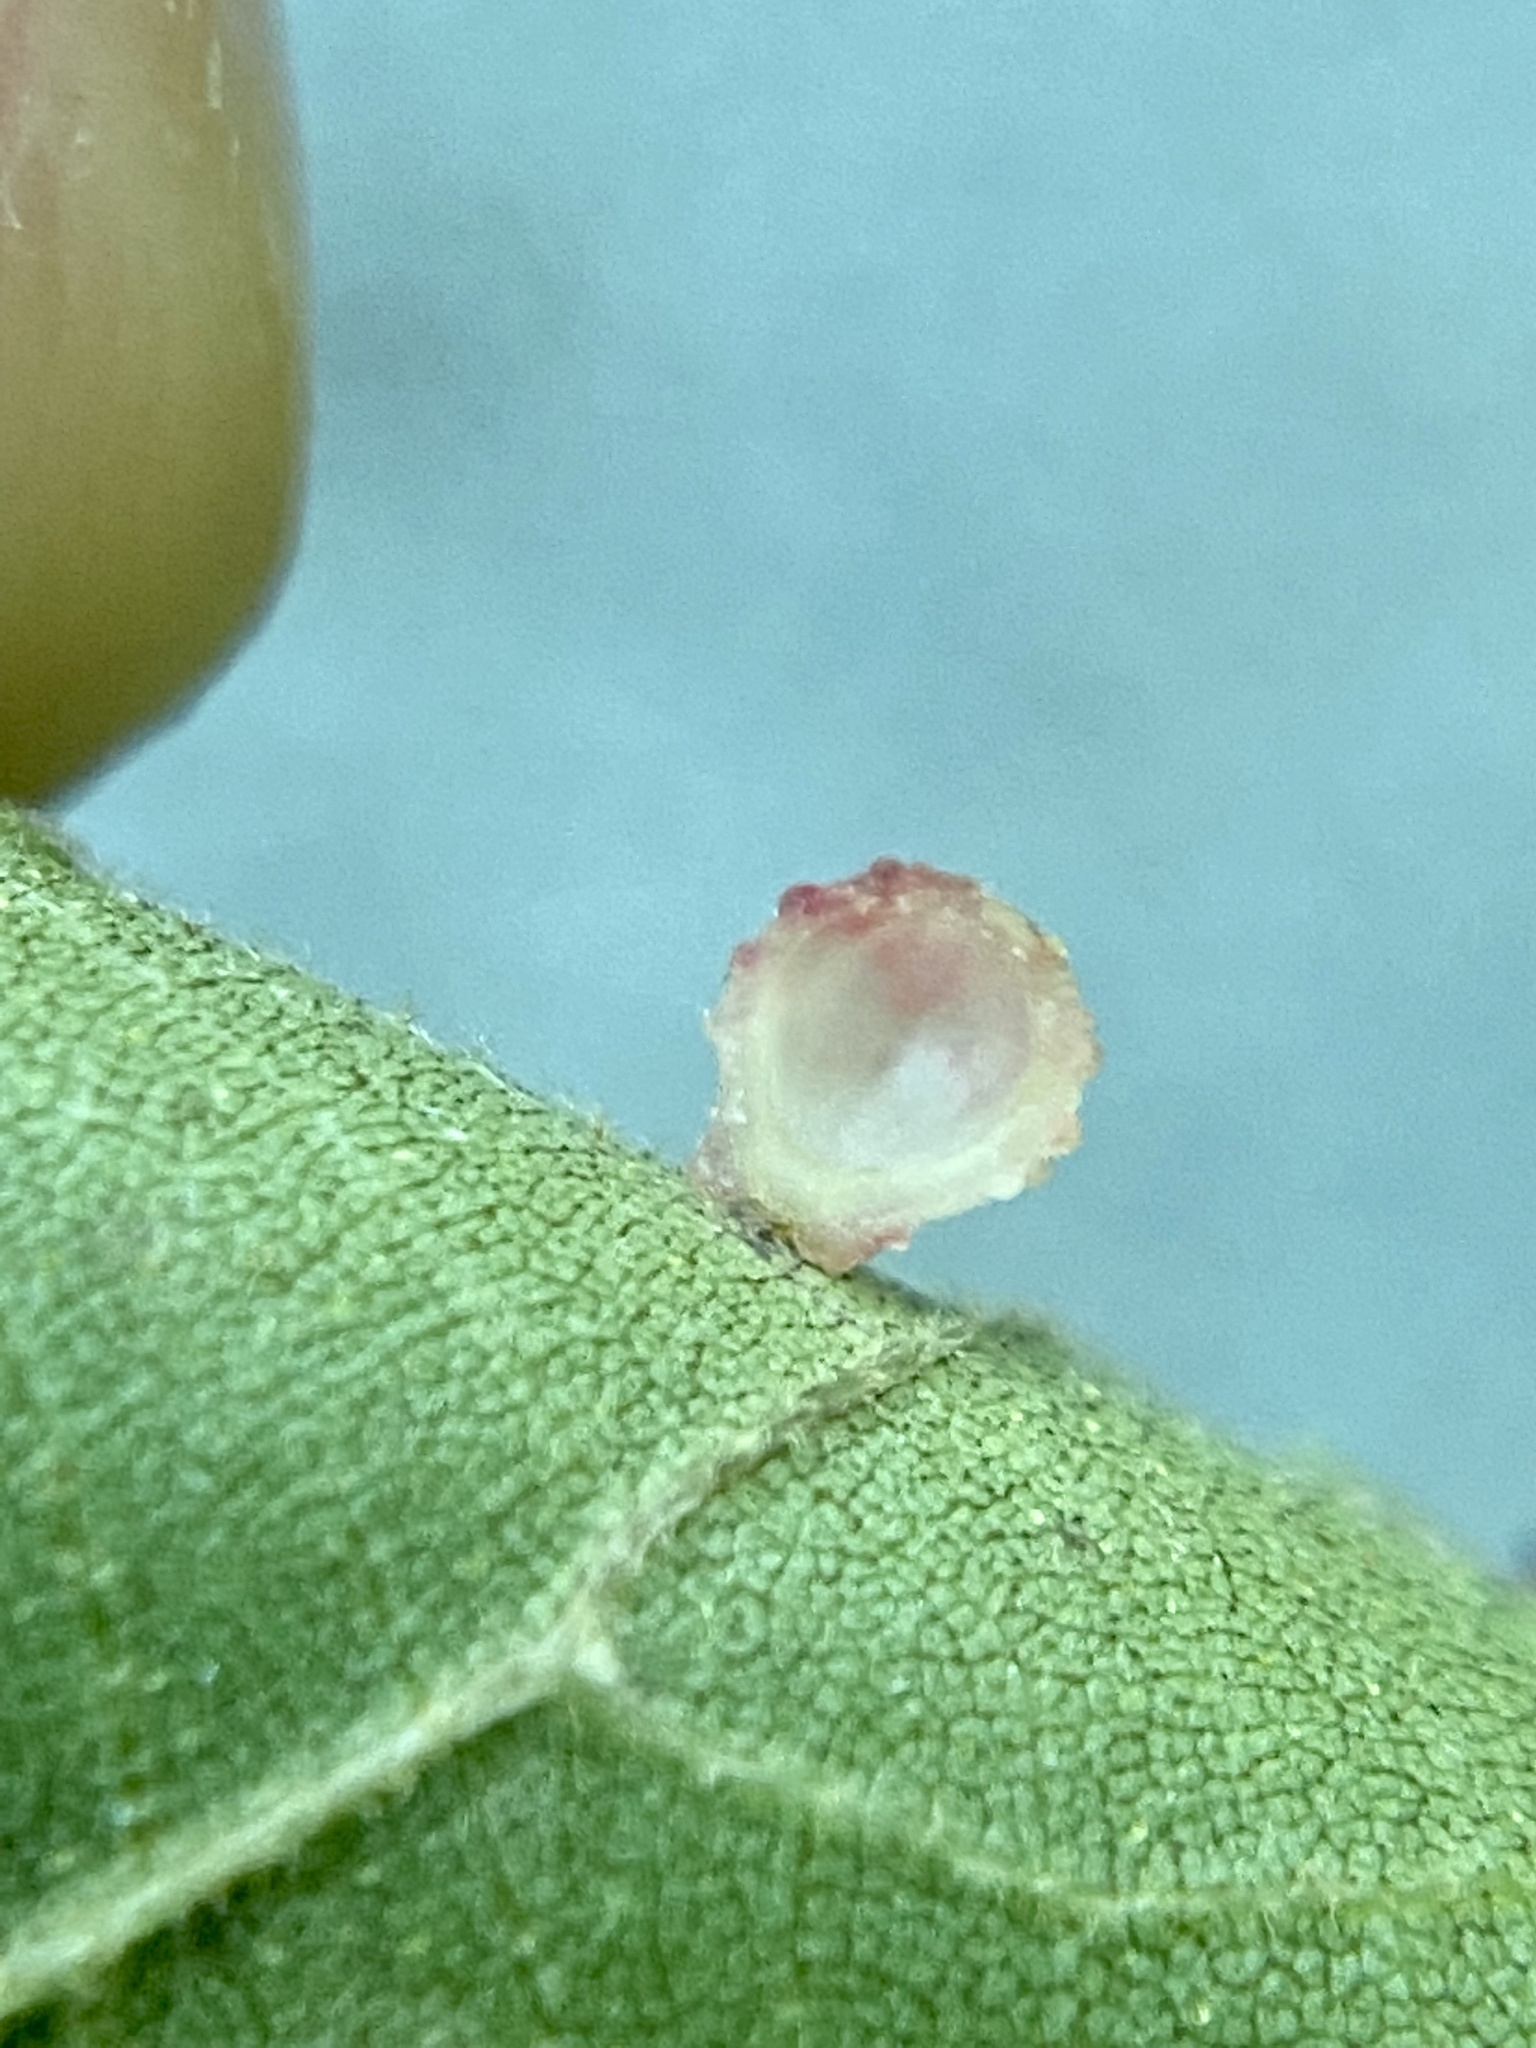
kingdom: Animalia
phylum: Arthropoda
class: Insecta
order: Diptera
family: Cecidomyiidae
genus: Caryomyia
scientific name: Caryomyia tuberidolium
